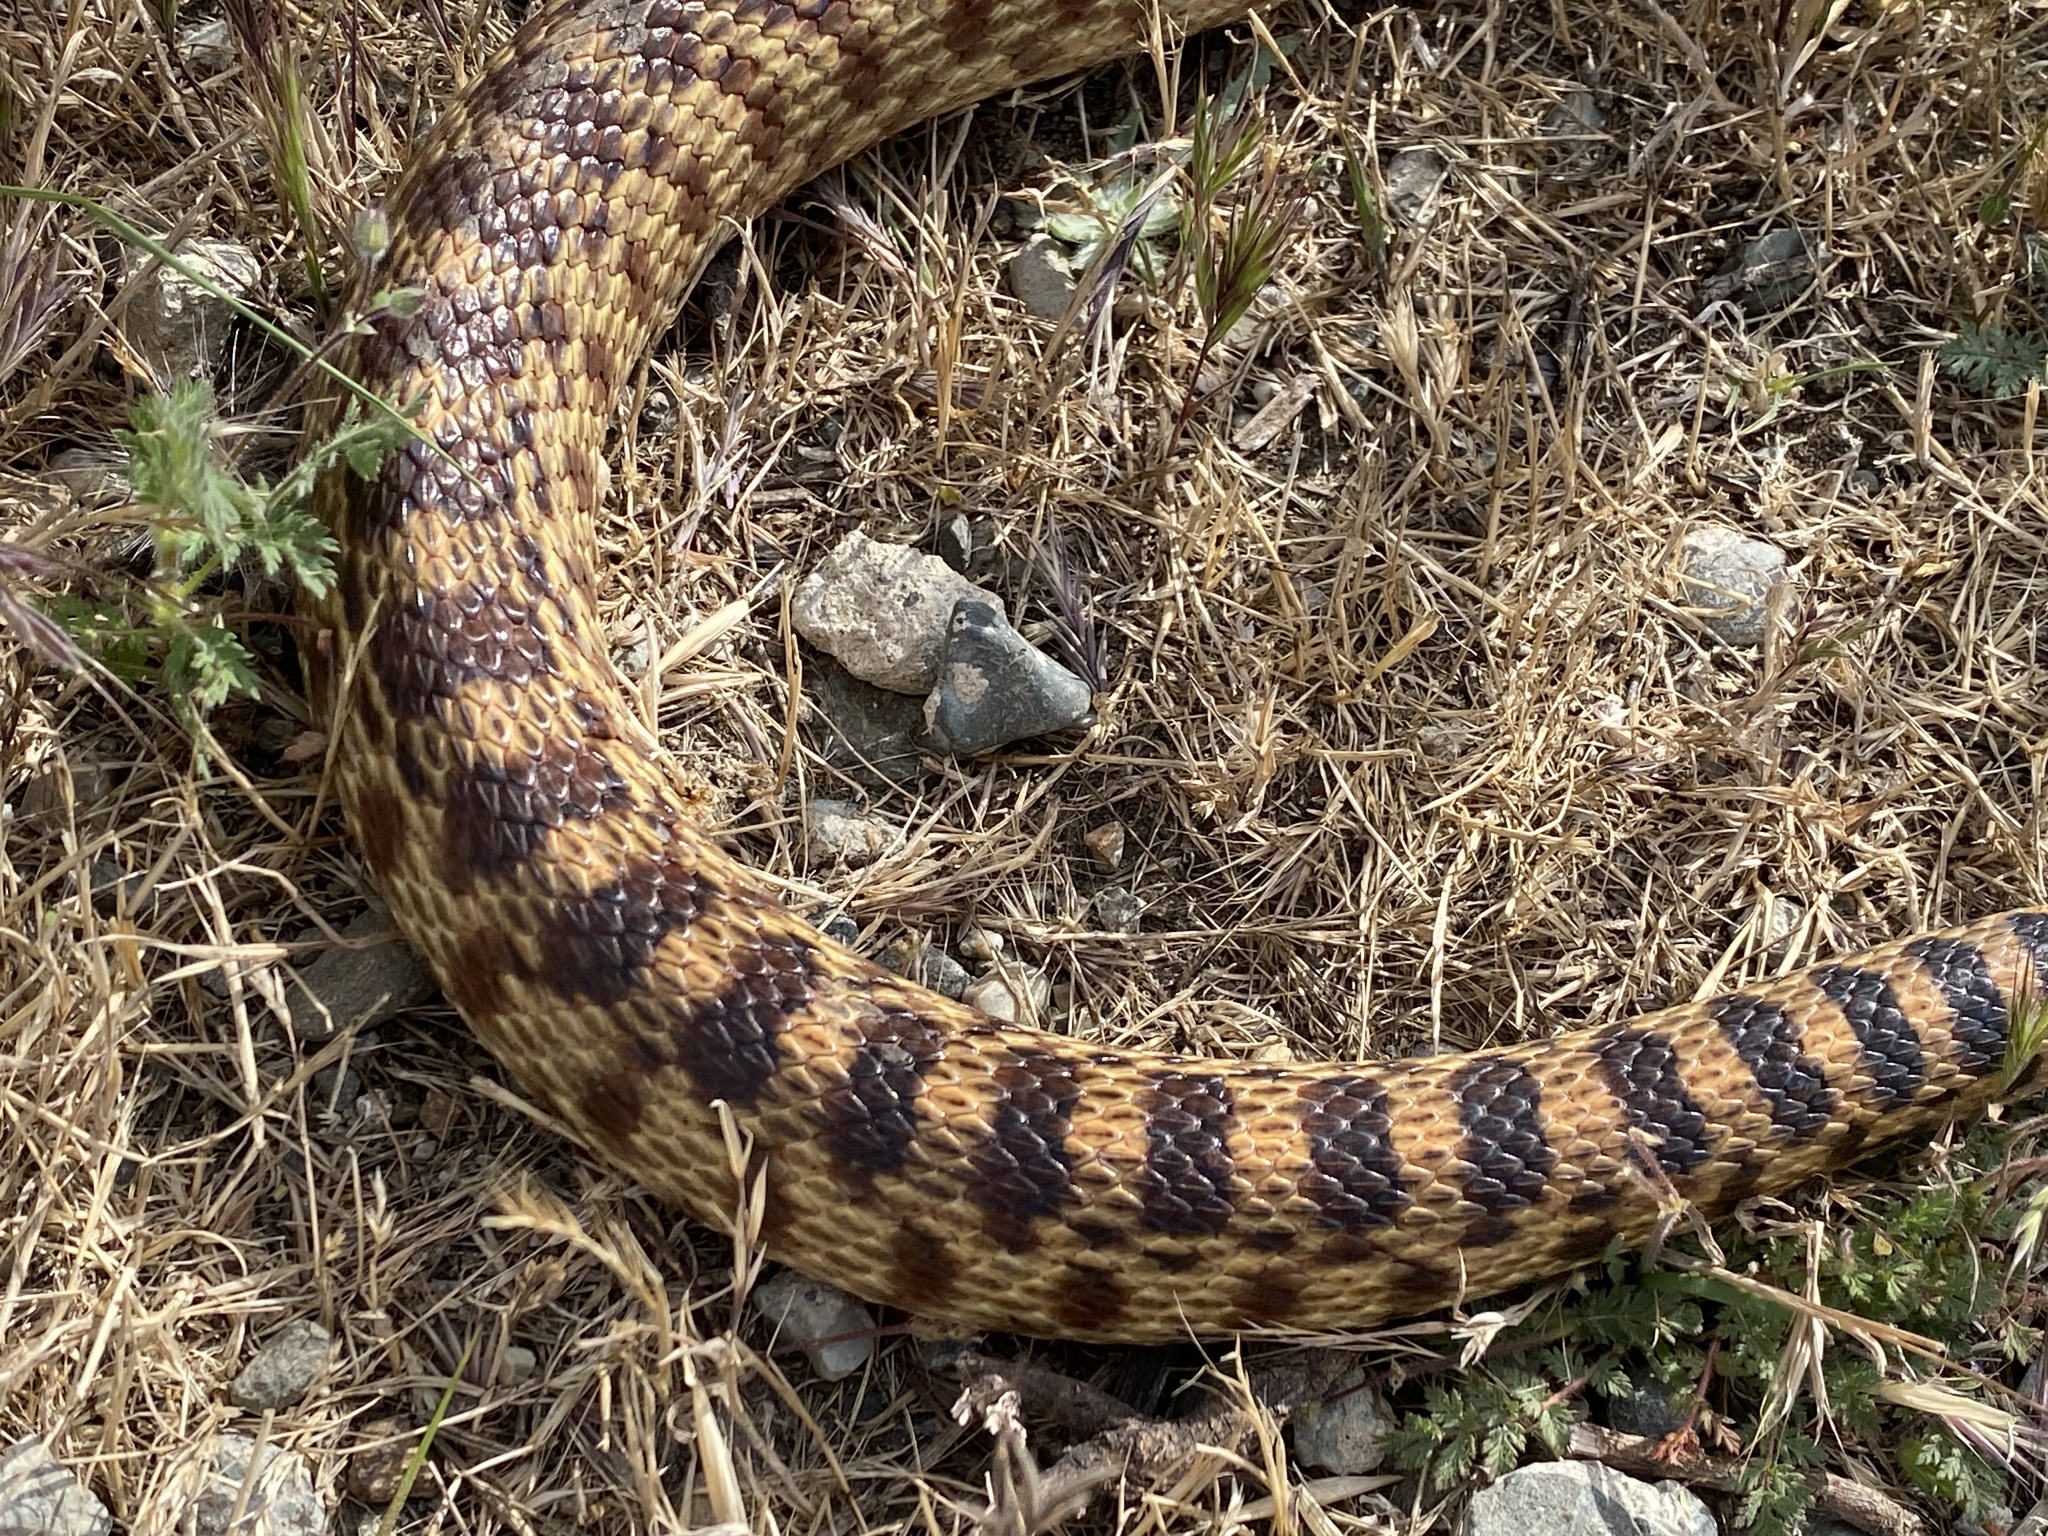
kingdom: Animalia
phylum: Chordata
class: Squamata
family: Colubridae
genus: Pituophis
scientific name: Pituophis catenifer
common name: Gopher snake
